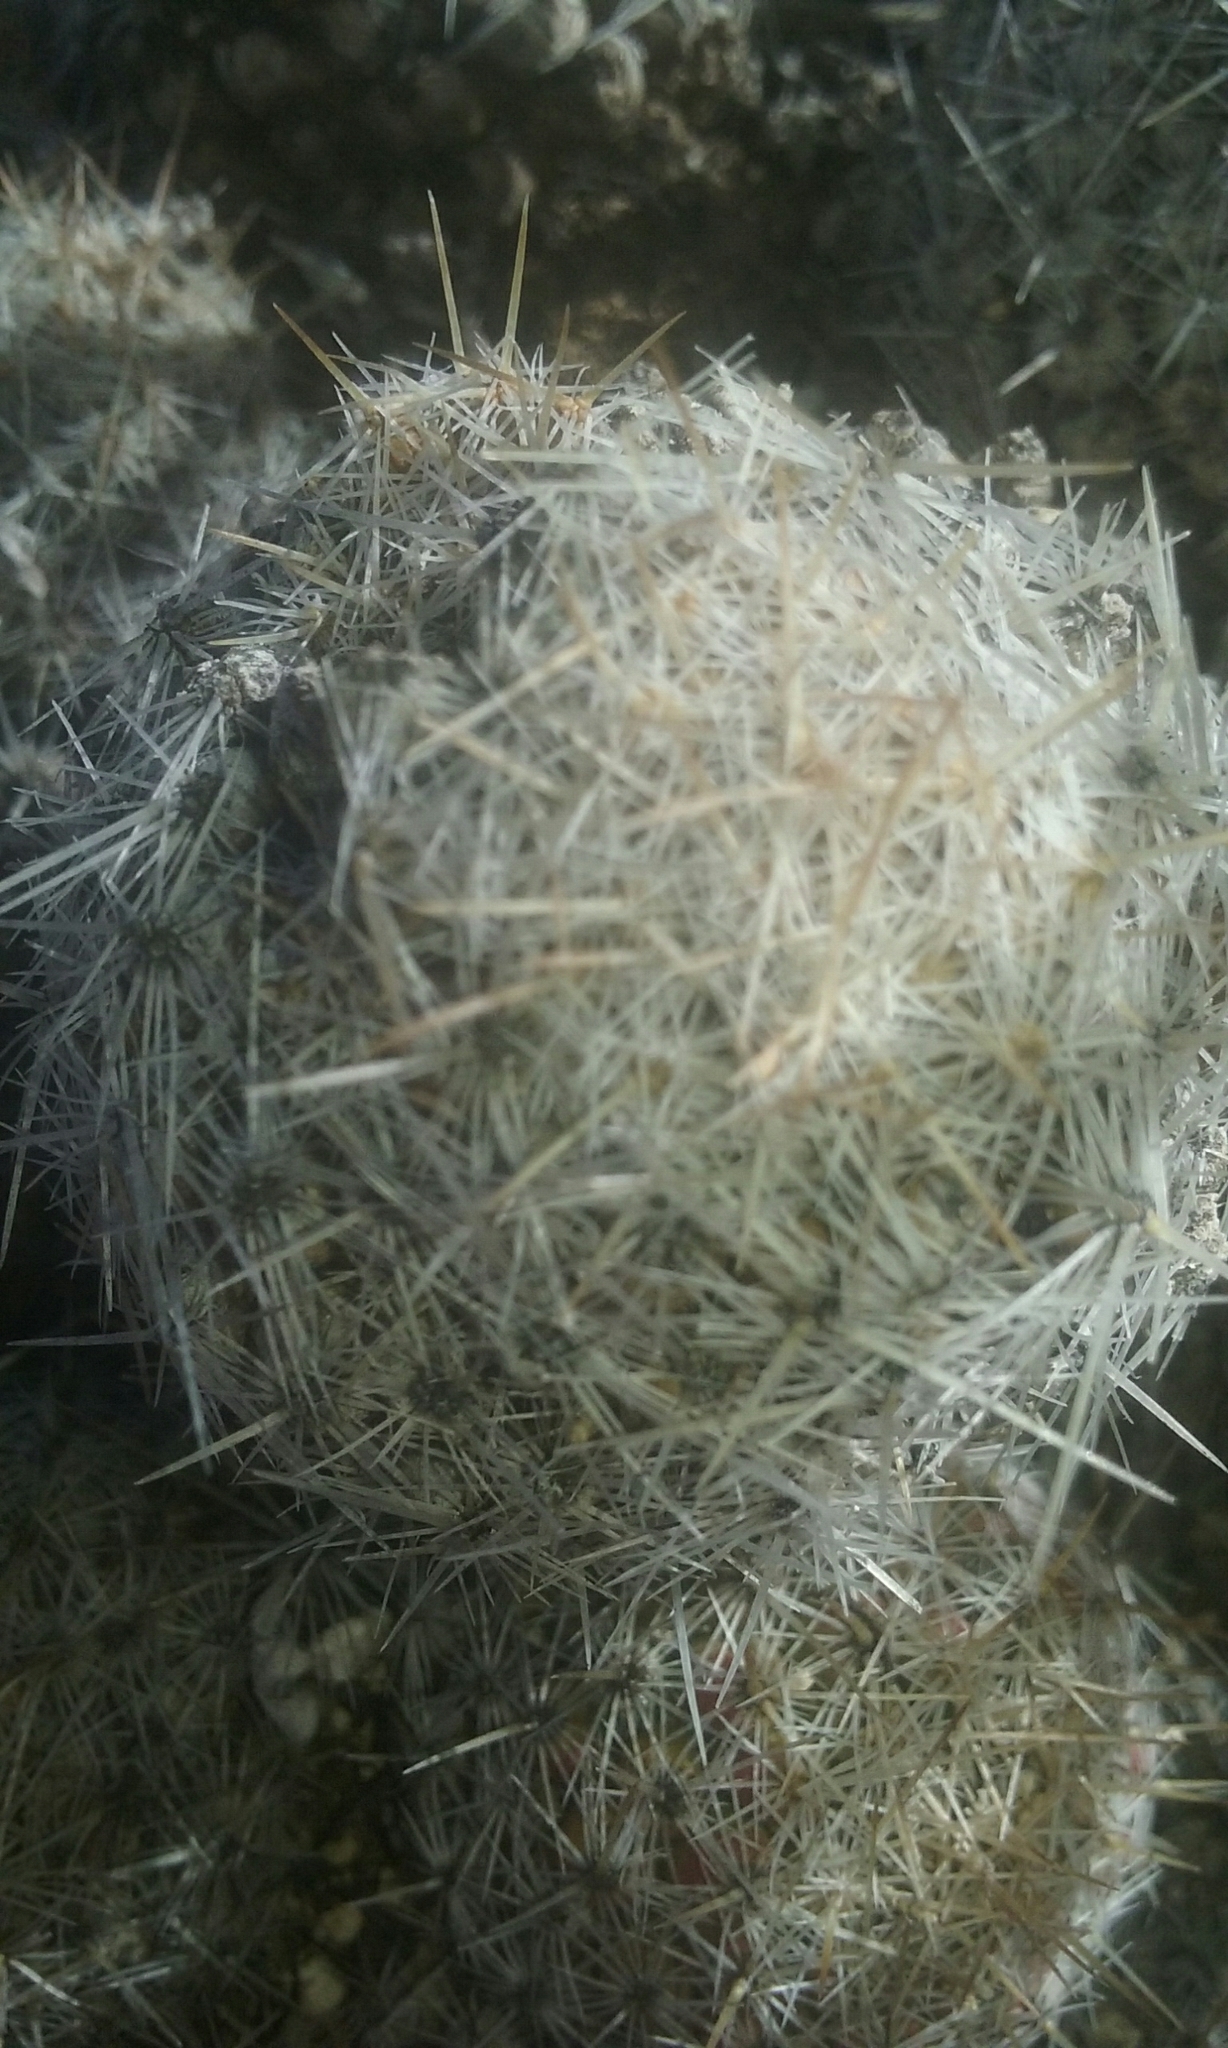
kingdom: Plantae
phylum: Tracheophyta
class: Magnoliopsida
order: Caryophyllales
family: Cactaceae
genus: Pelecyphora
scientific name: Pelecyphora tuberculosa
